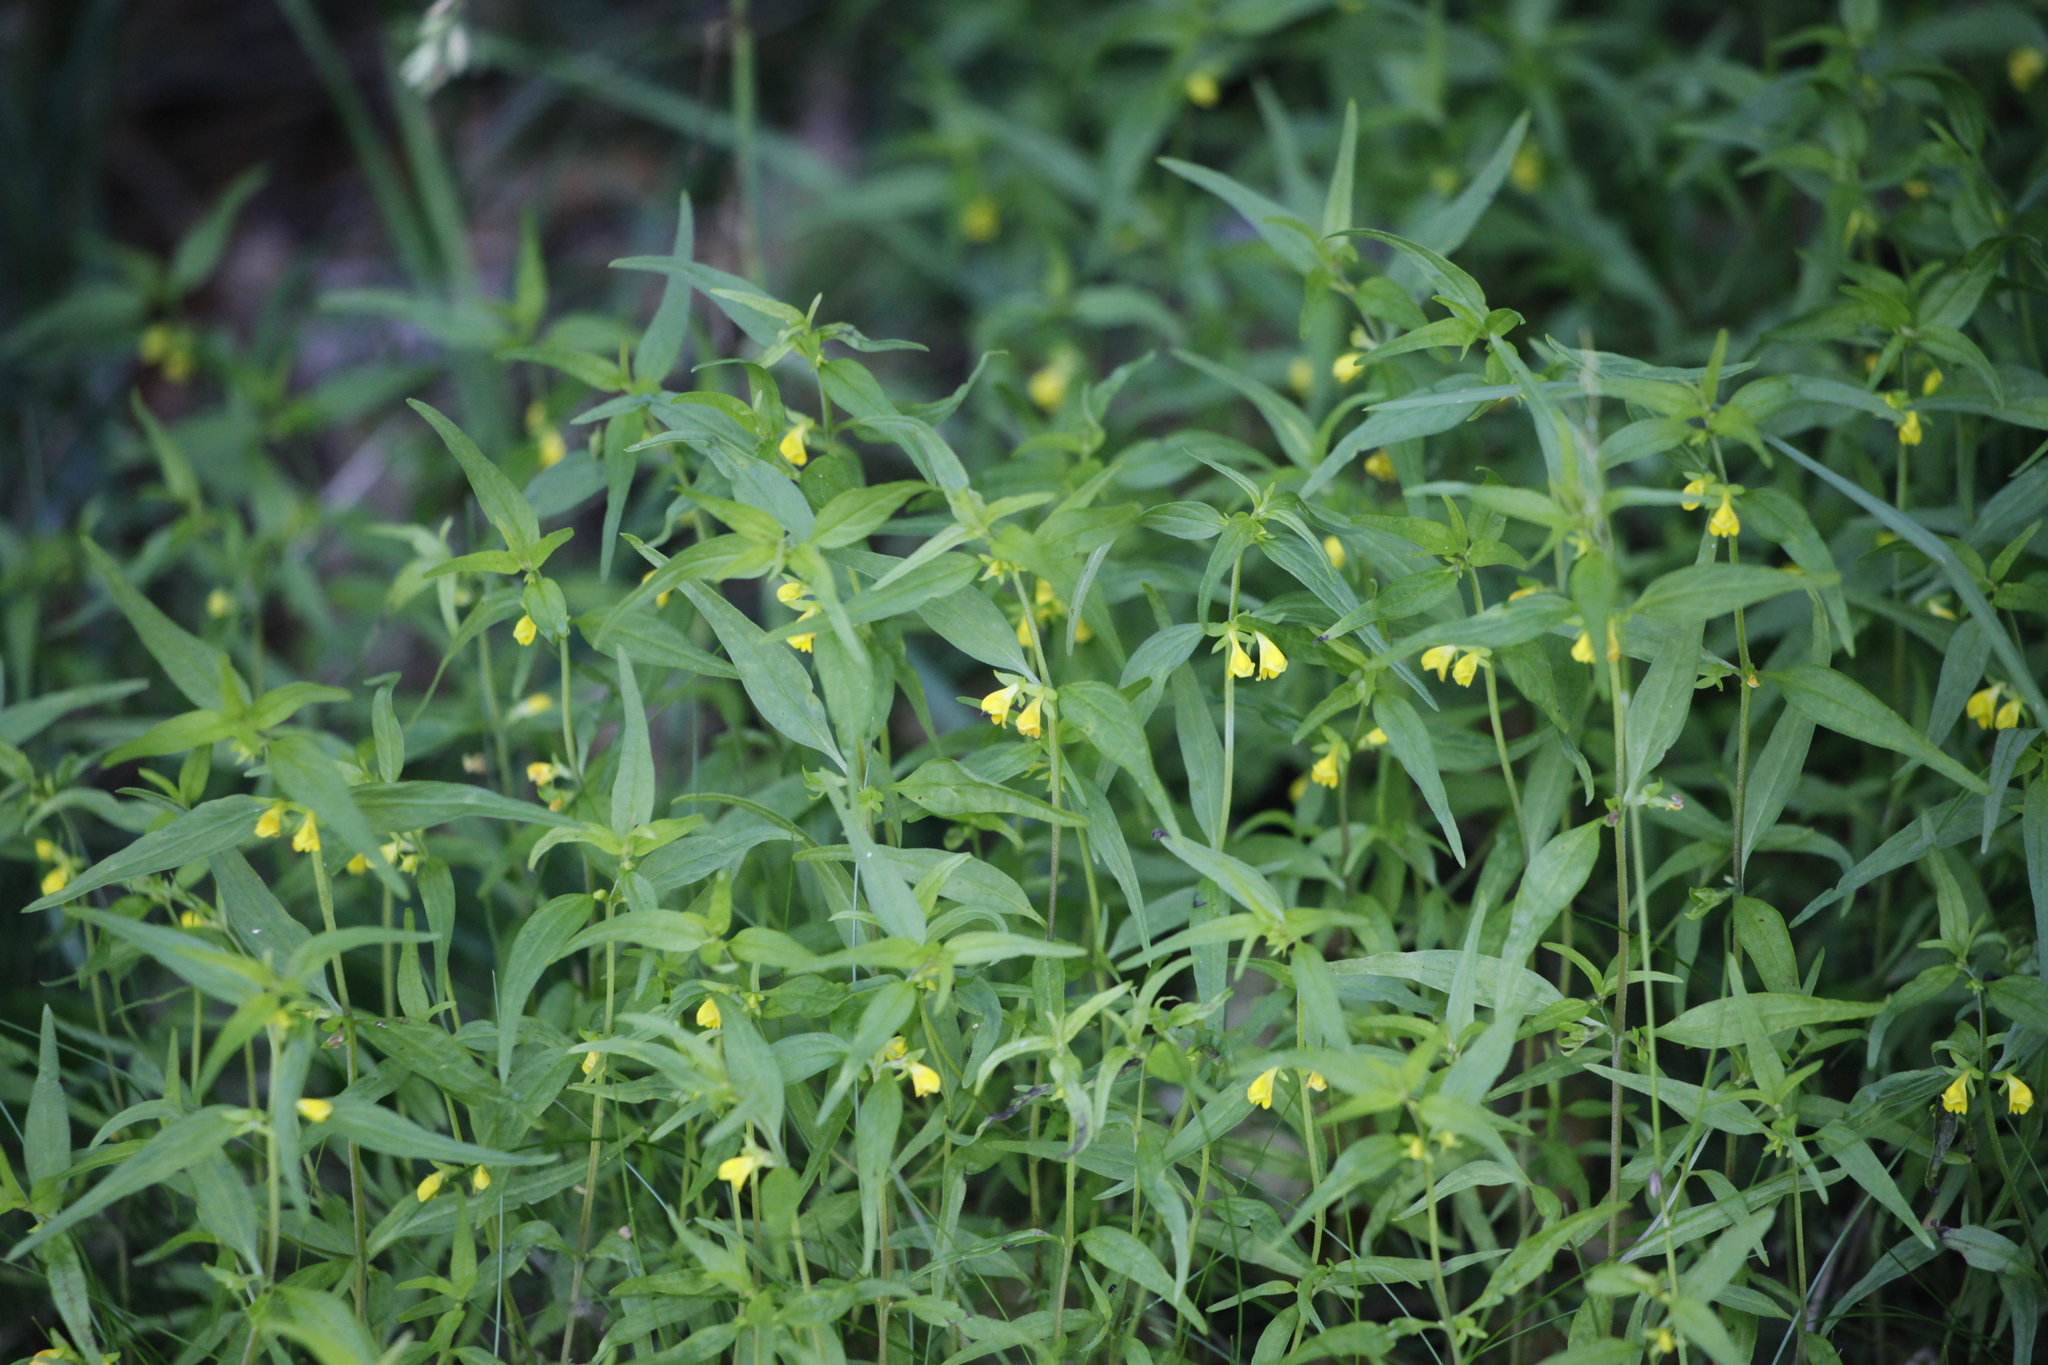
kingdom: Plantae
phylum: Tracheophyta
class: Magnoliopsida
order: Lamiales
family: Orobanchaceae
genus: Melampyrum
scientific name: Melampyrum sylvaticum
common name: Small cow-wheat
